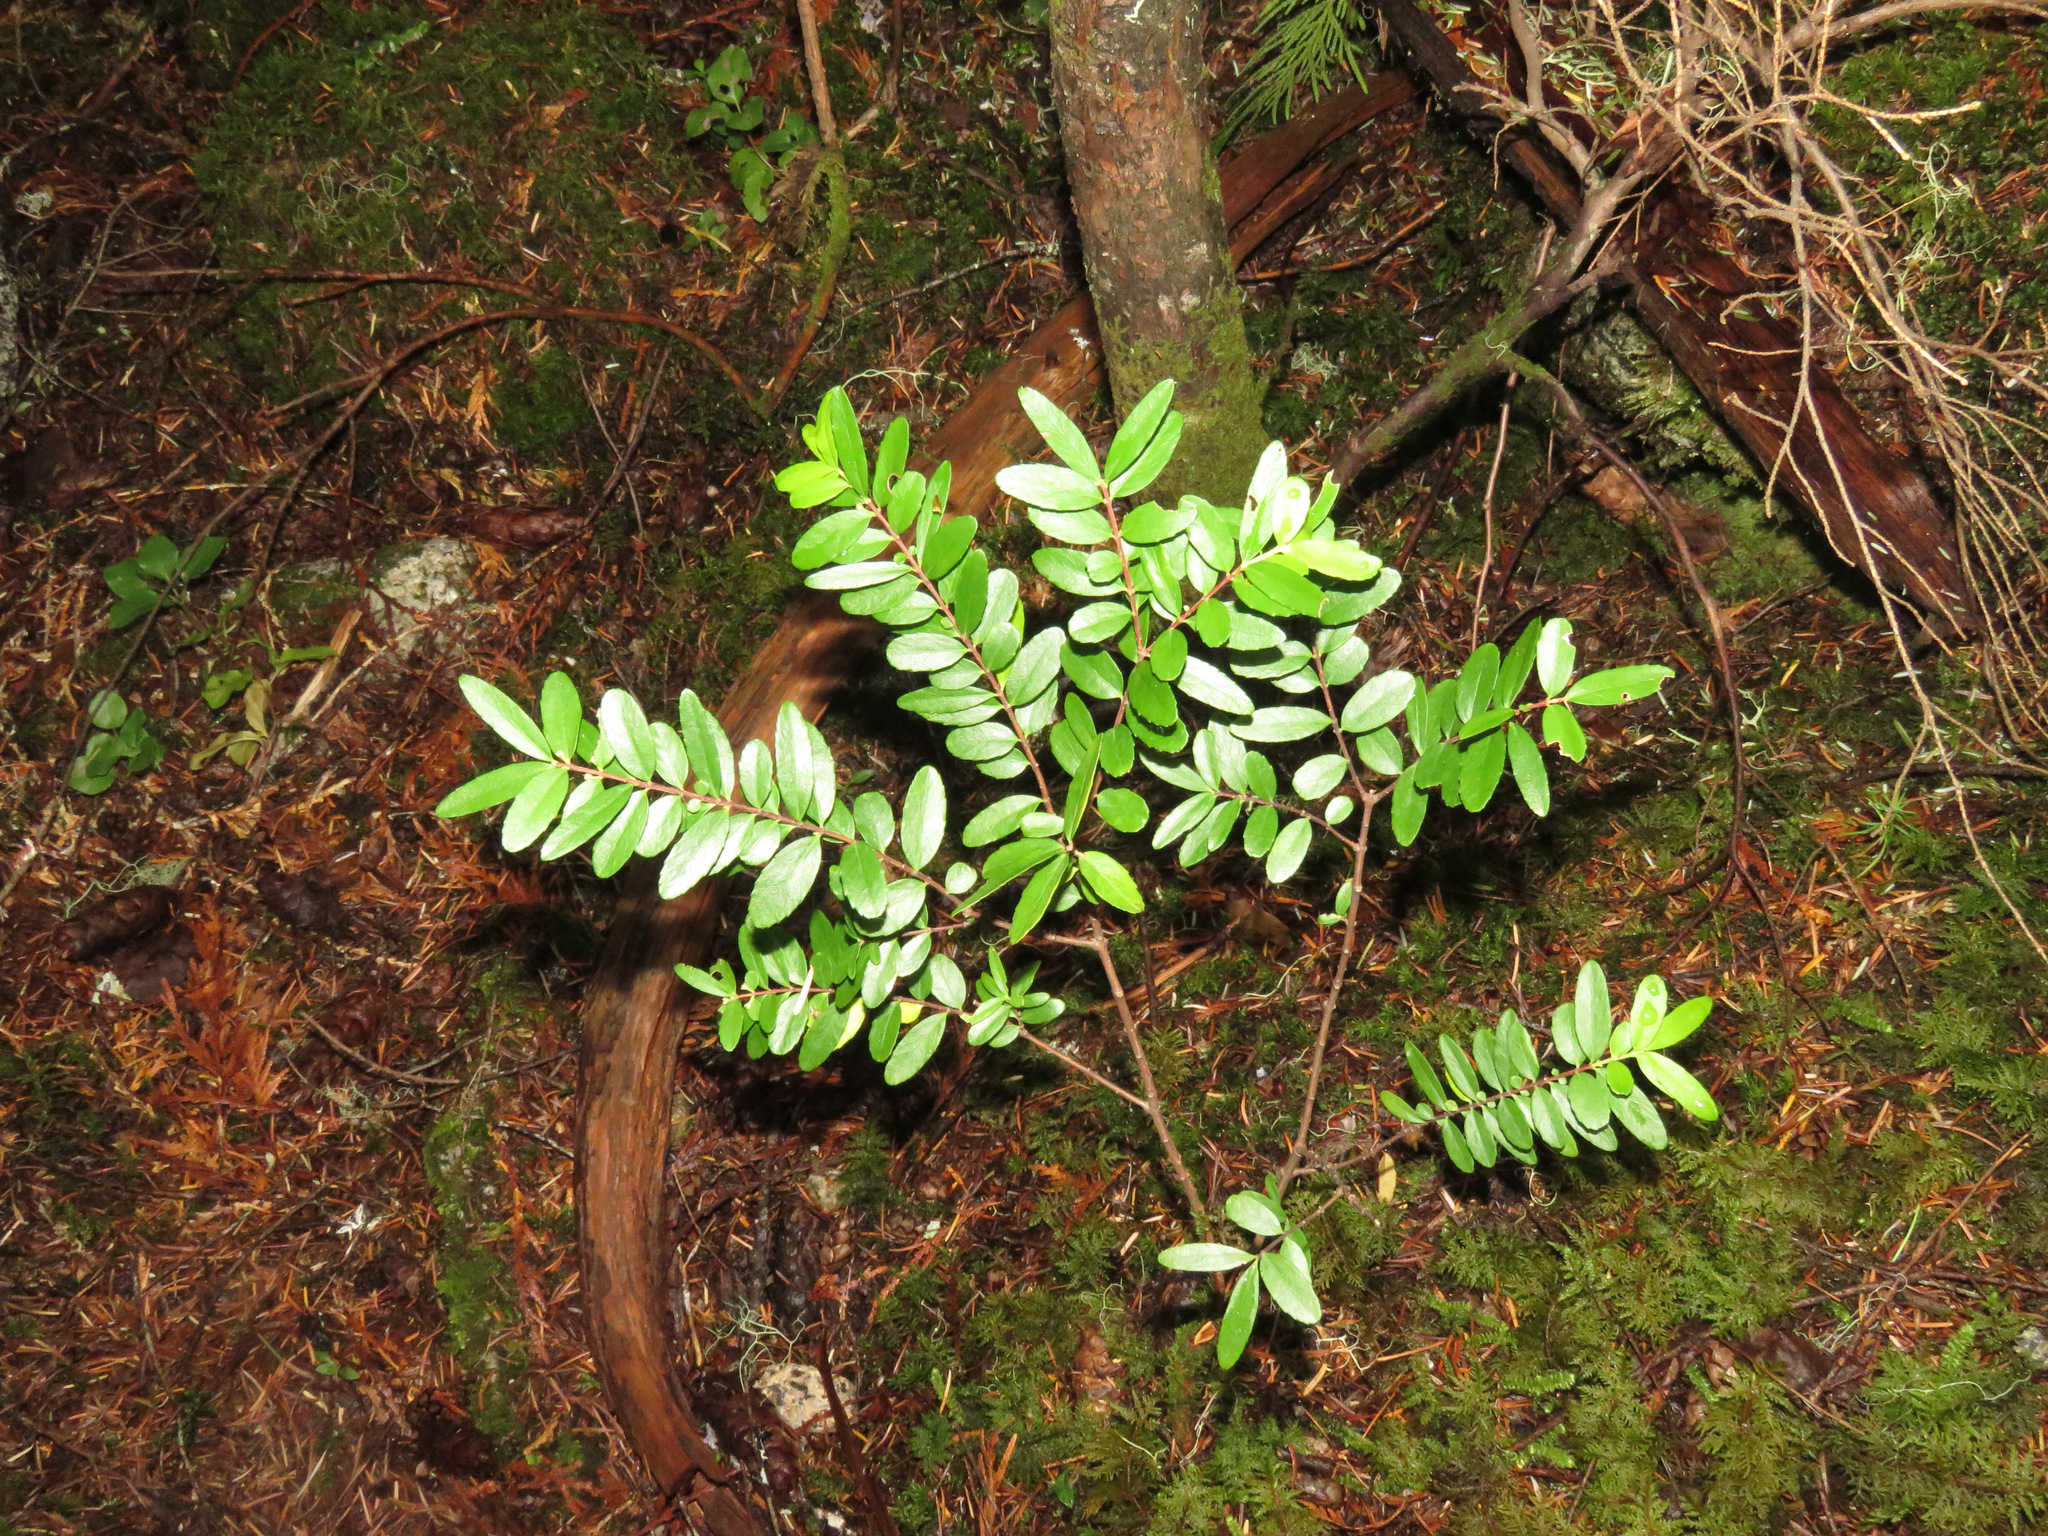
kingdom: Plantae
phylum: Tracheophyta
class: Magnoliopsida
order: Celastrales
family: Celastraceae
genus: Paxistima
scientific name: Paxistima myrsinites
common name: Mountain-lover
